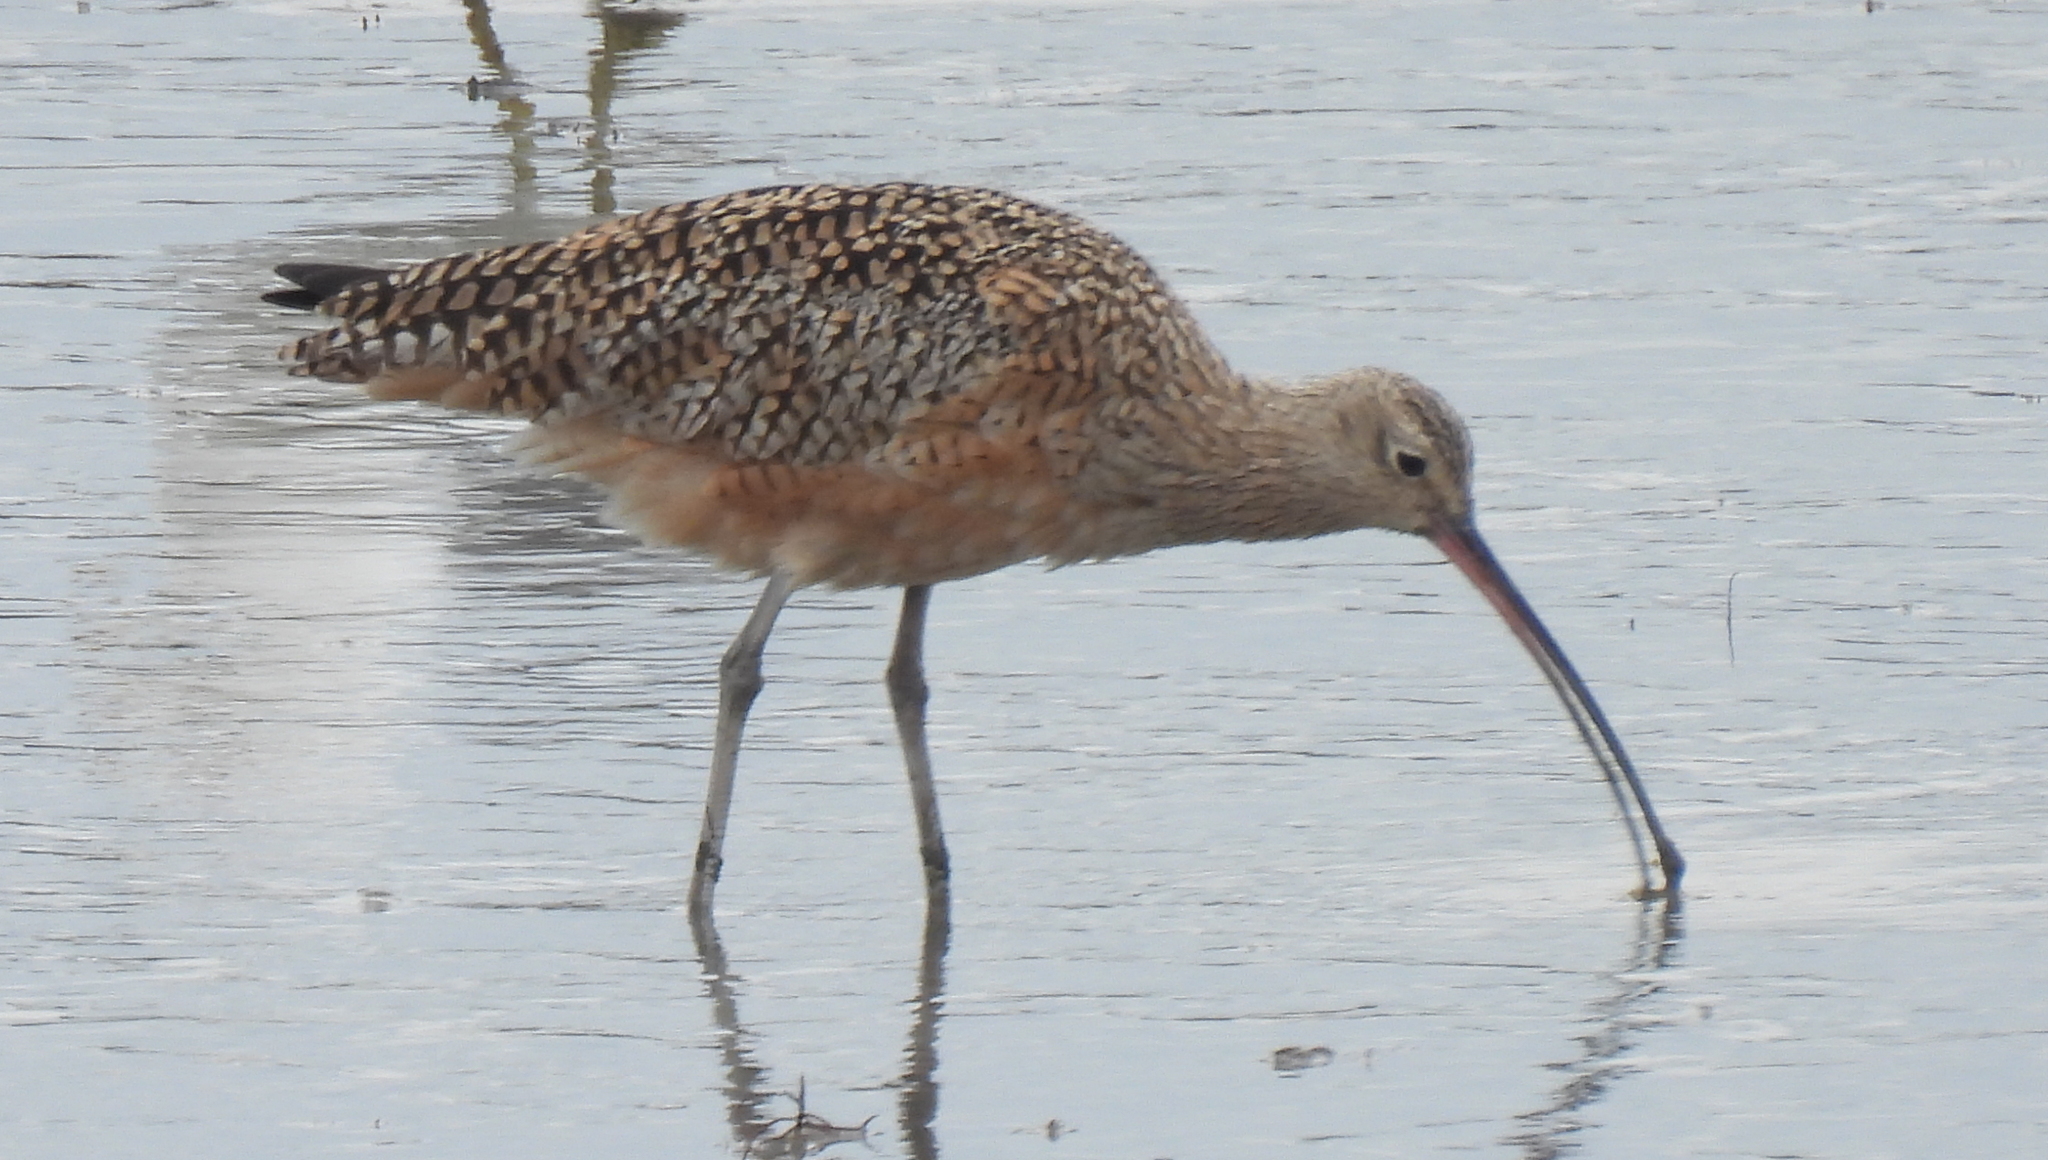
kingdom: Animalia
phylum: Chordata
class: Aves
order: Charadriiformes
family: Scolopacidae
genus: Numenius
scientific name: Numenius americanus
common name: Long-billed curlew
